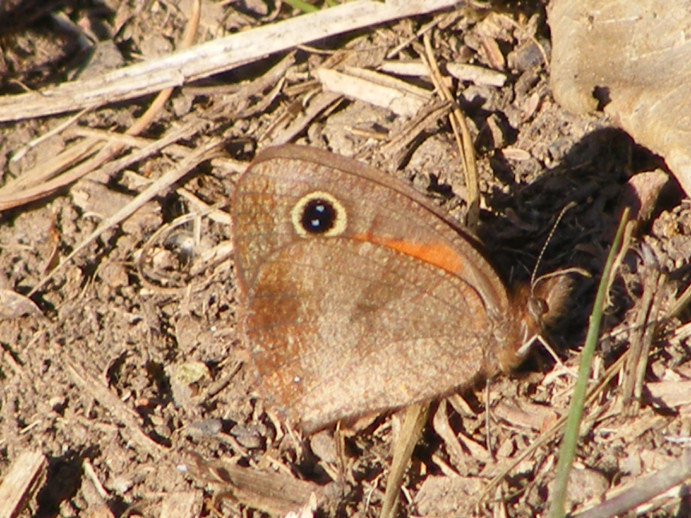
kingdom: Animalia
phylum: Arthropoda
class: Insecta
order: Lepidoptera
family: Nymphalidae
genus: Cassionympha
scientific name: Cassionympha cassius
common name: Rainforest brown
